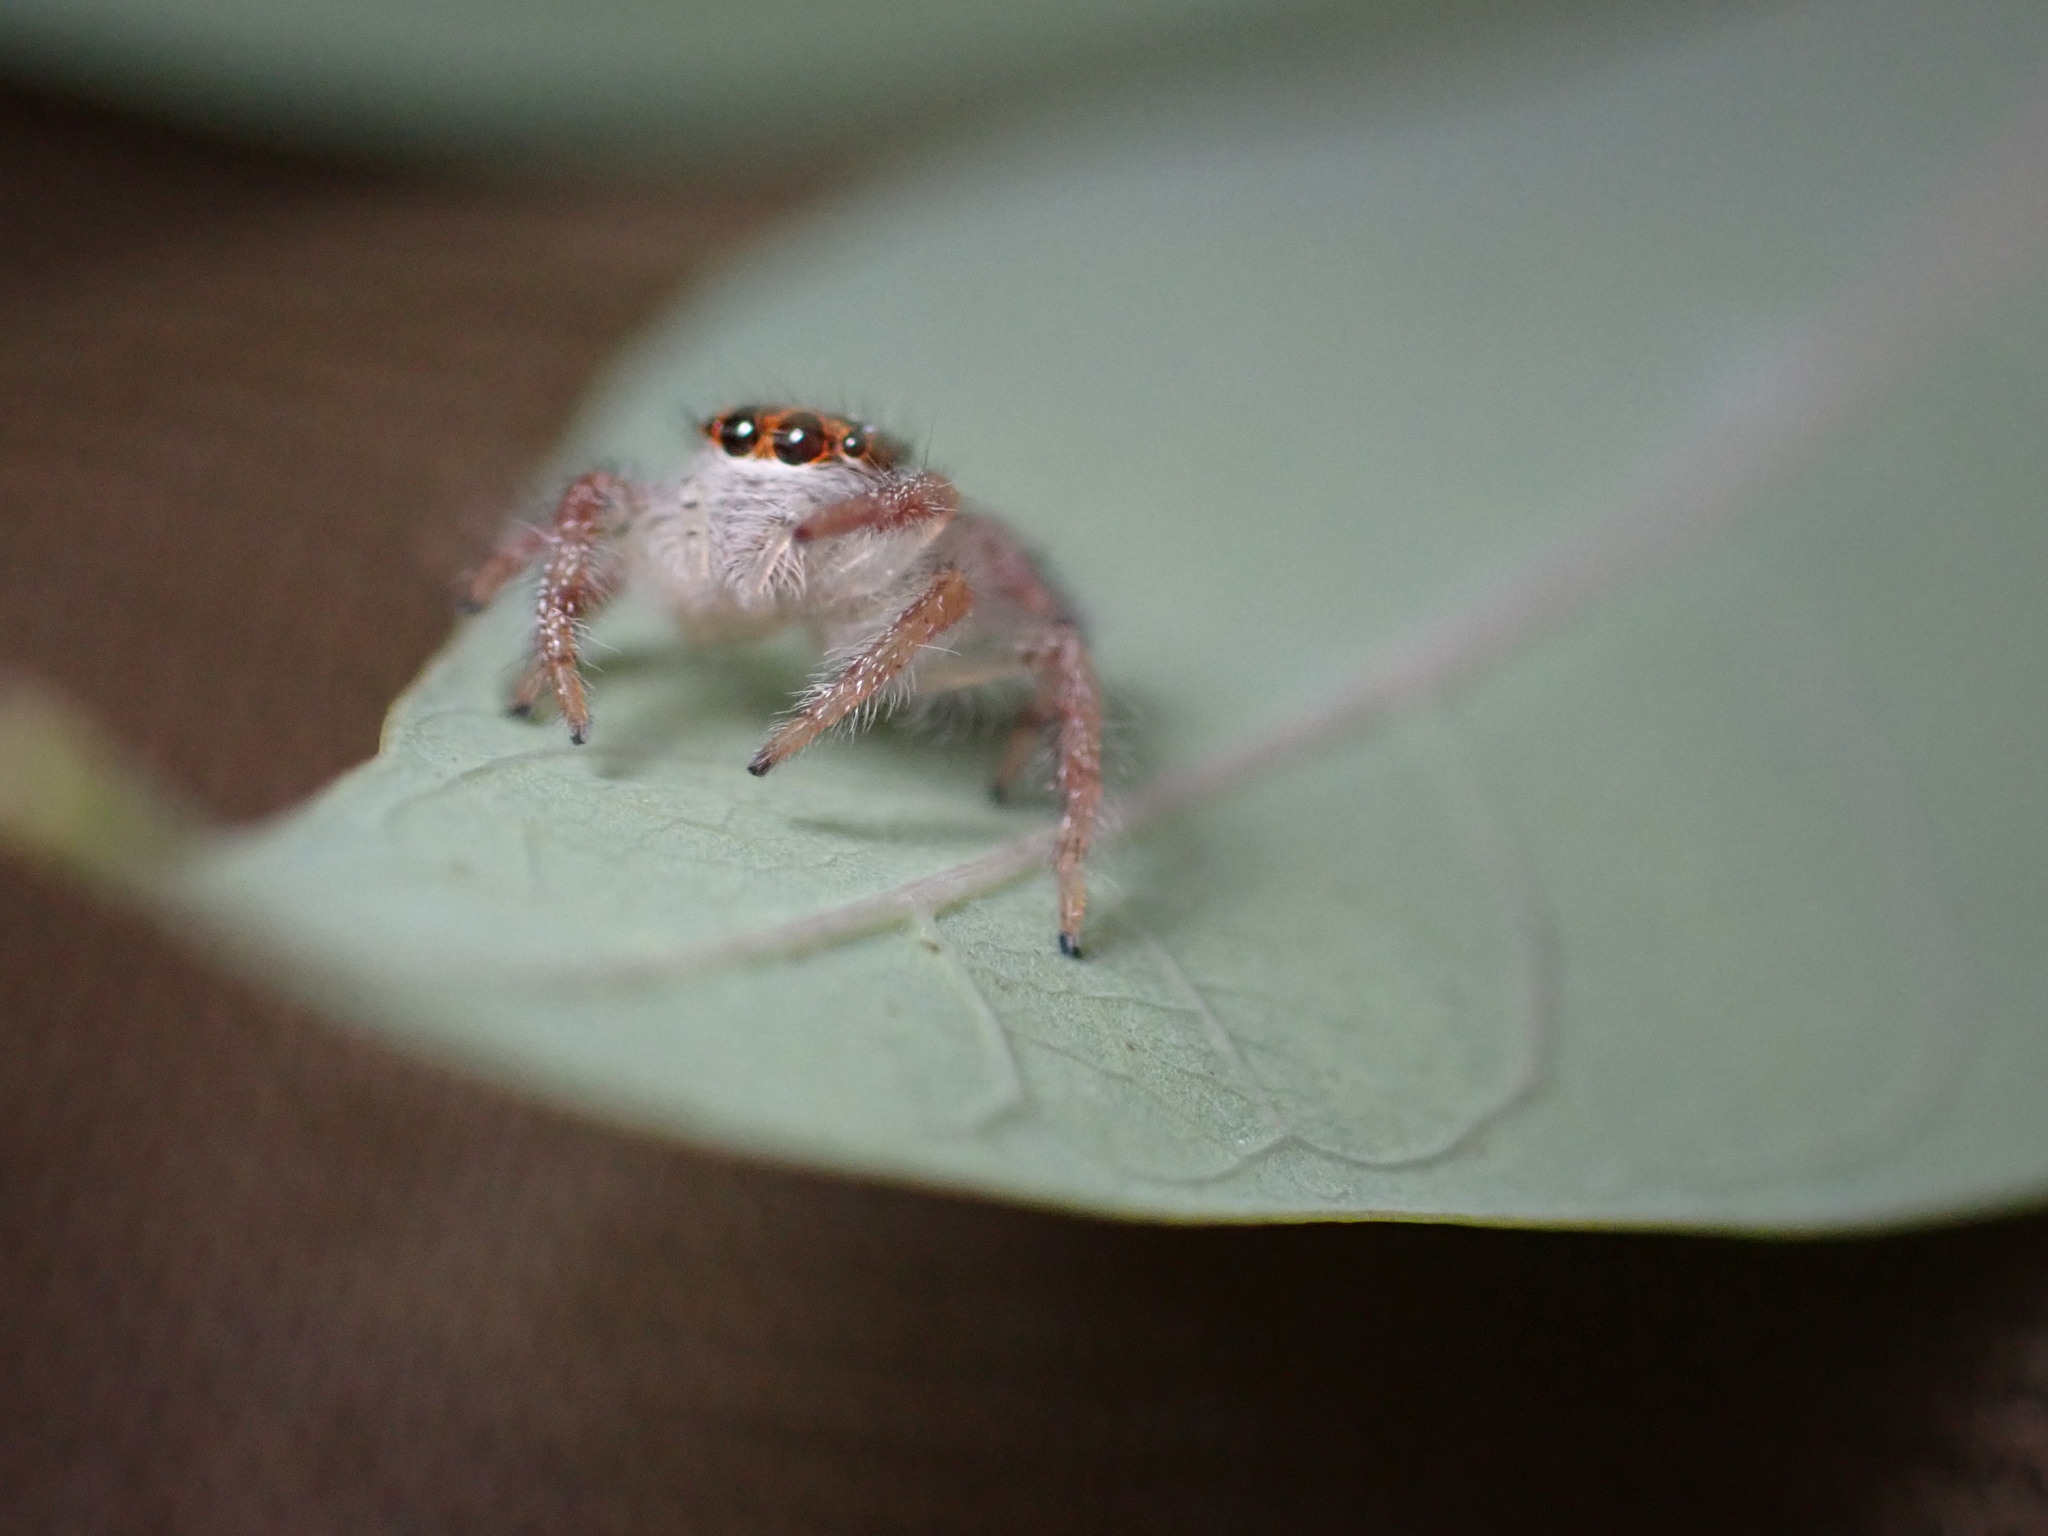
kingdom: Animalia
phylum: Arthropoda
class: Arachnida
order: Araneae
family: Salticidae
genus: Hyllus
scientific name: Hyllus diardi
